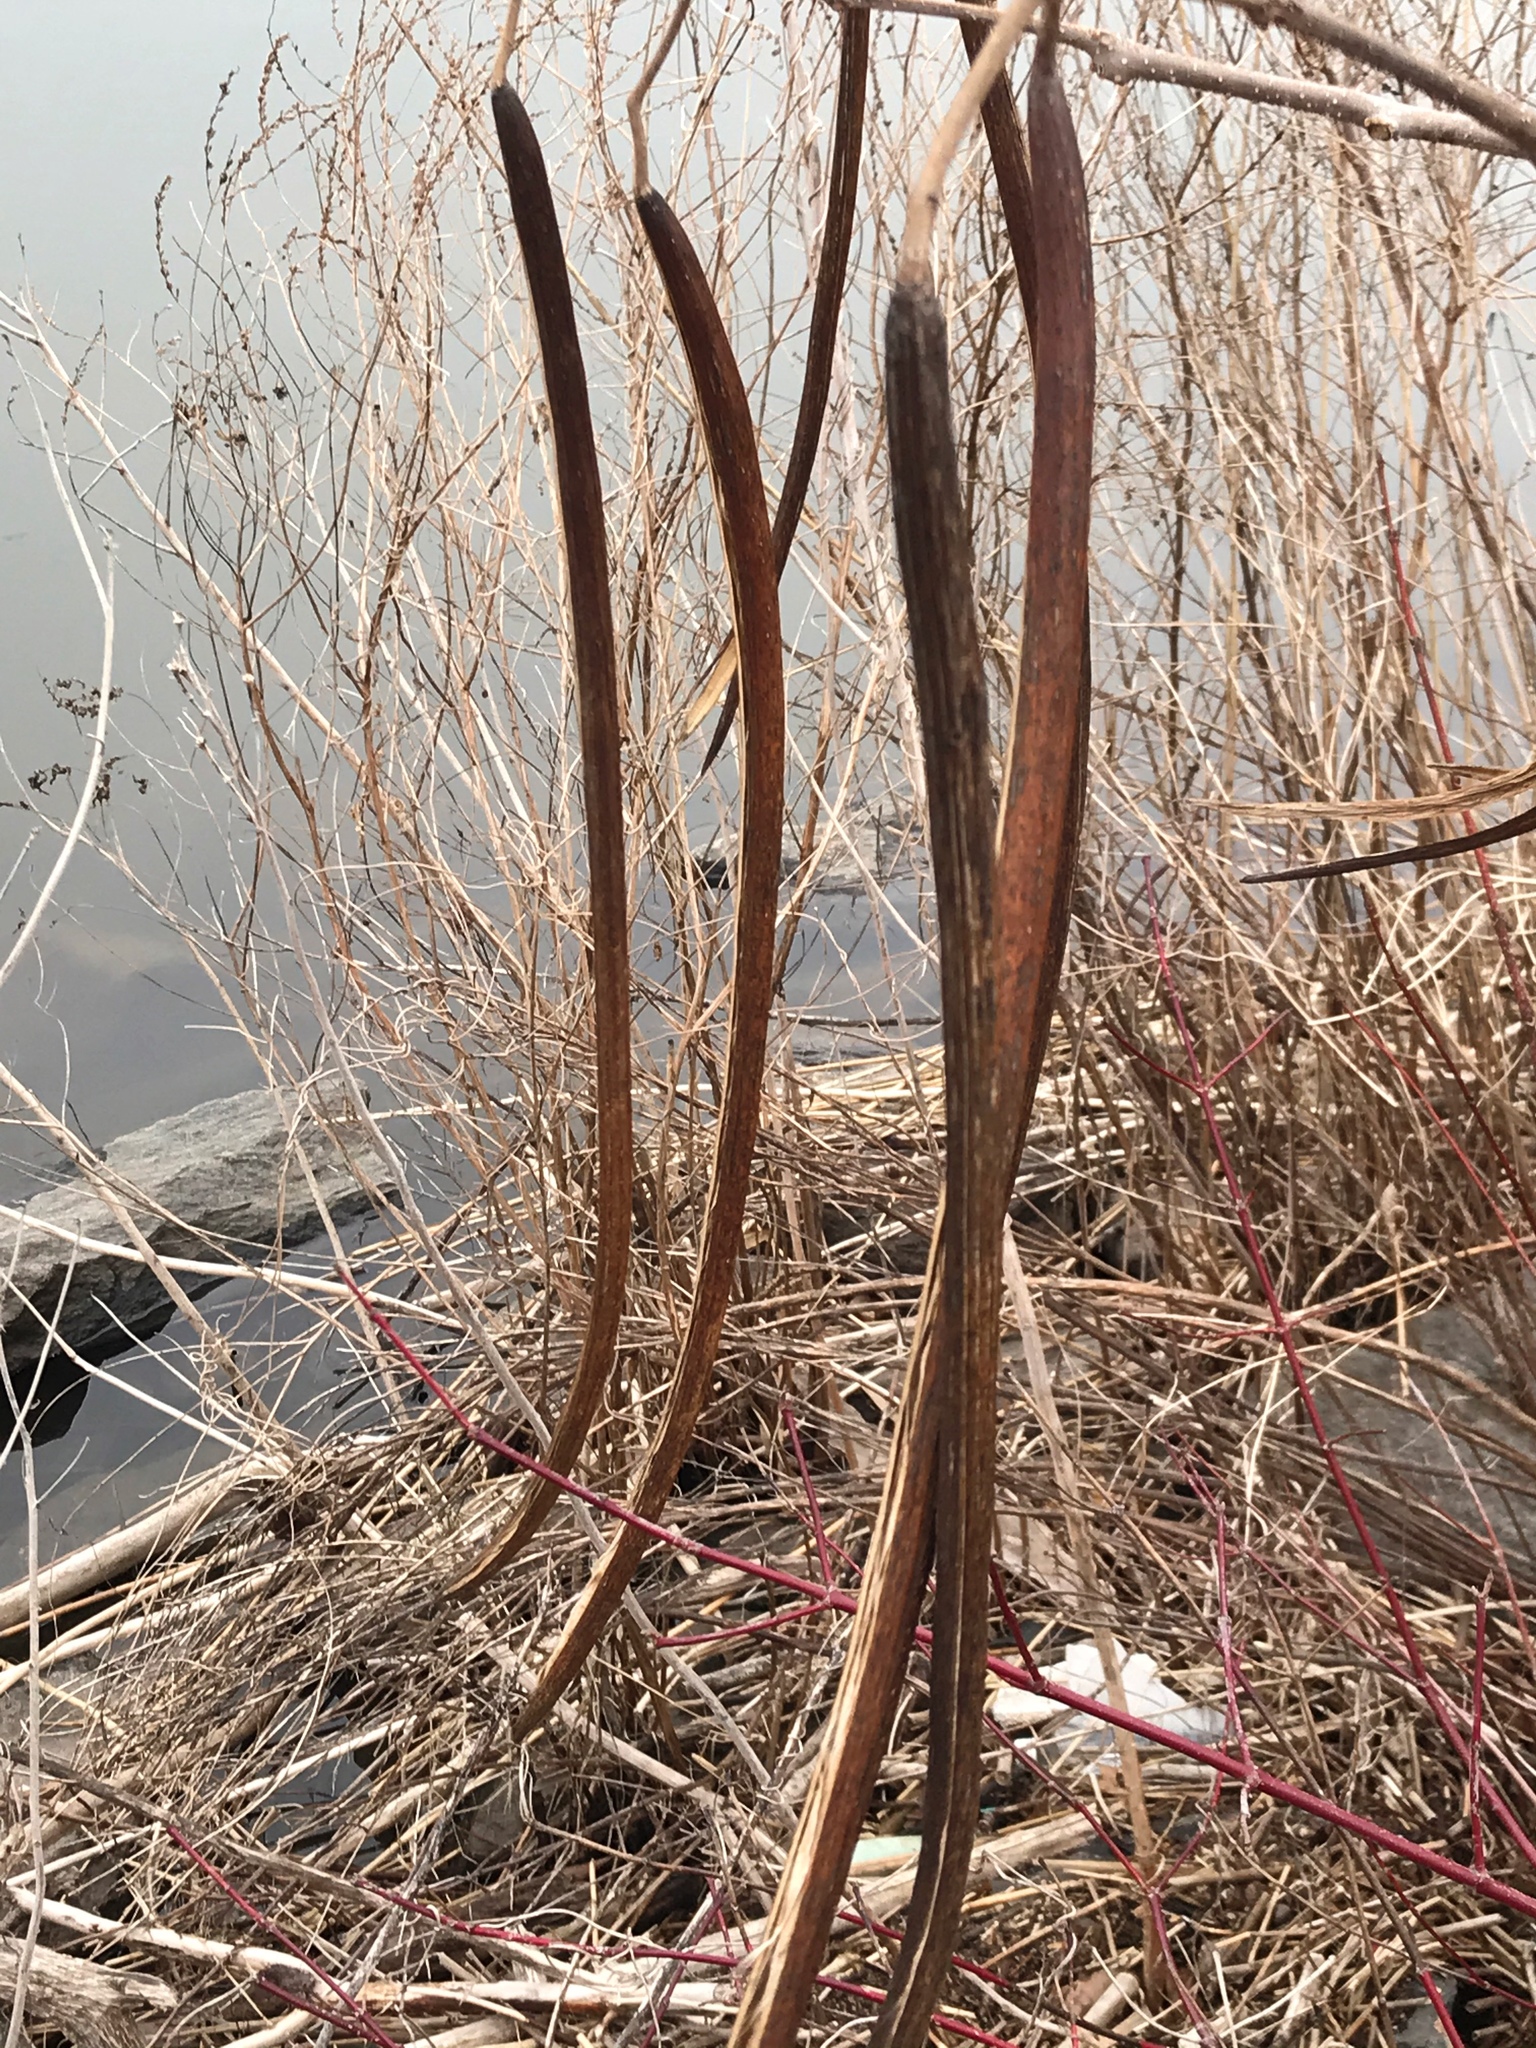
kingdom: Plantae
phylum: Tracheophyta
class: Magnoliopsida
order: Lamiales
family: Bignoniaceae
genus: Catalpa
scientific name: Catalpa
